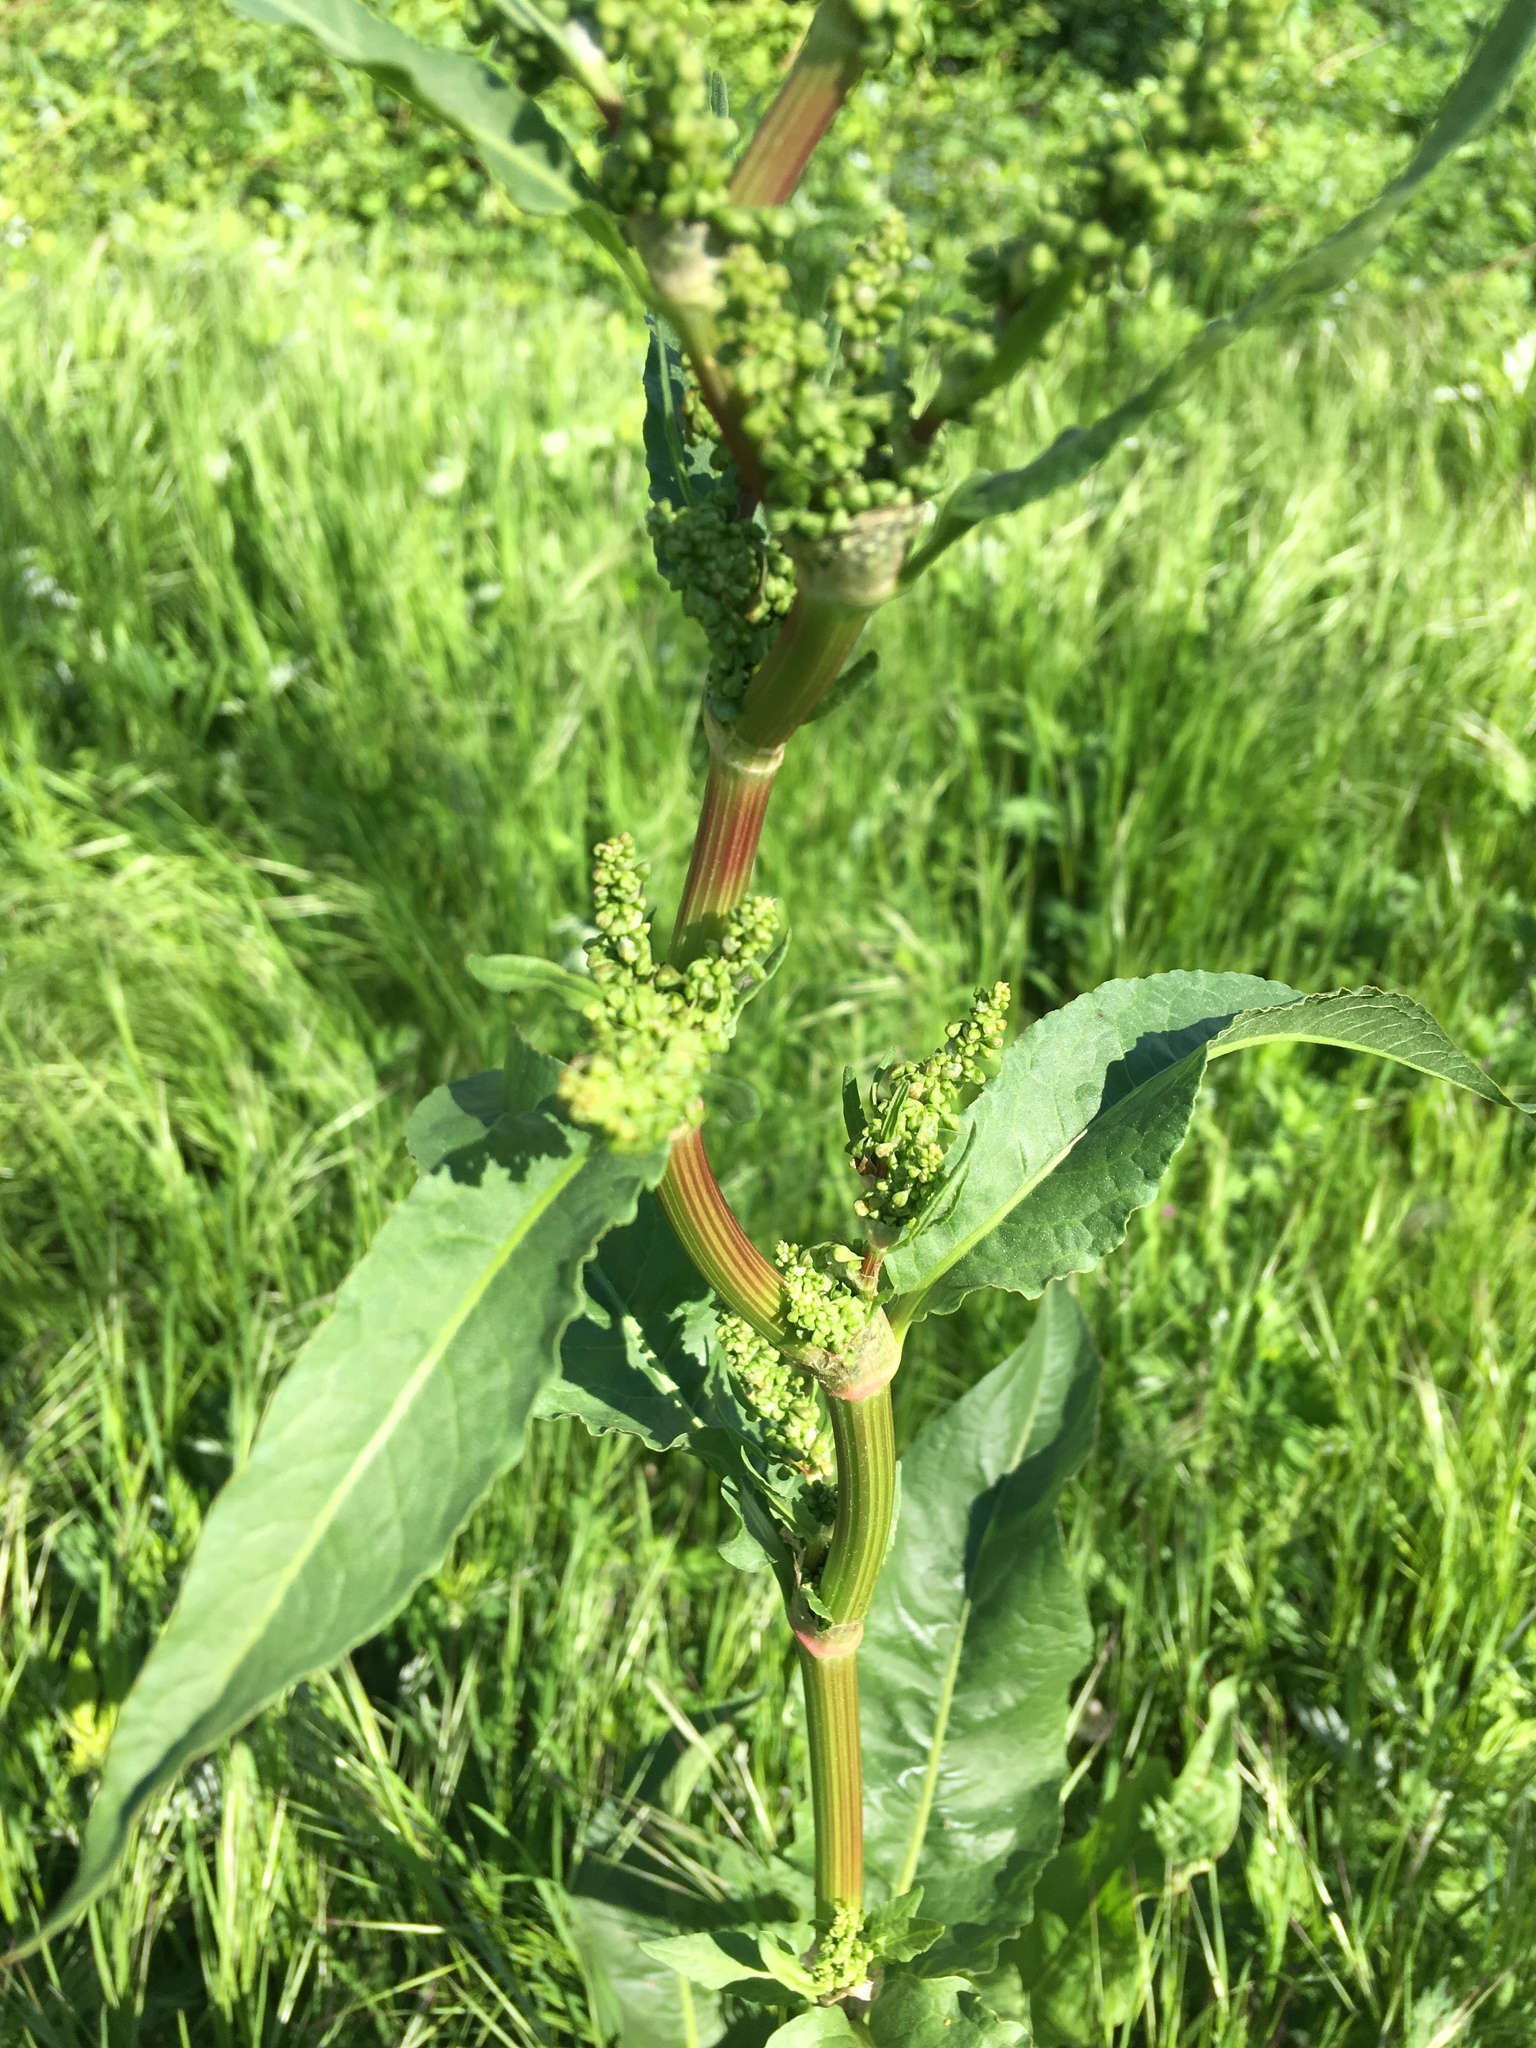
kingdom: Plantae
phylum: Tracheophyta
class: Magnoliopsida
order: Caryophyllales
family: Polygonaceae
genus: Rumex
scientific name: Rumex cristatus
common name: Greek dock
